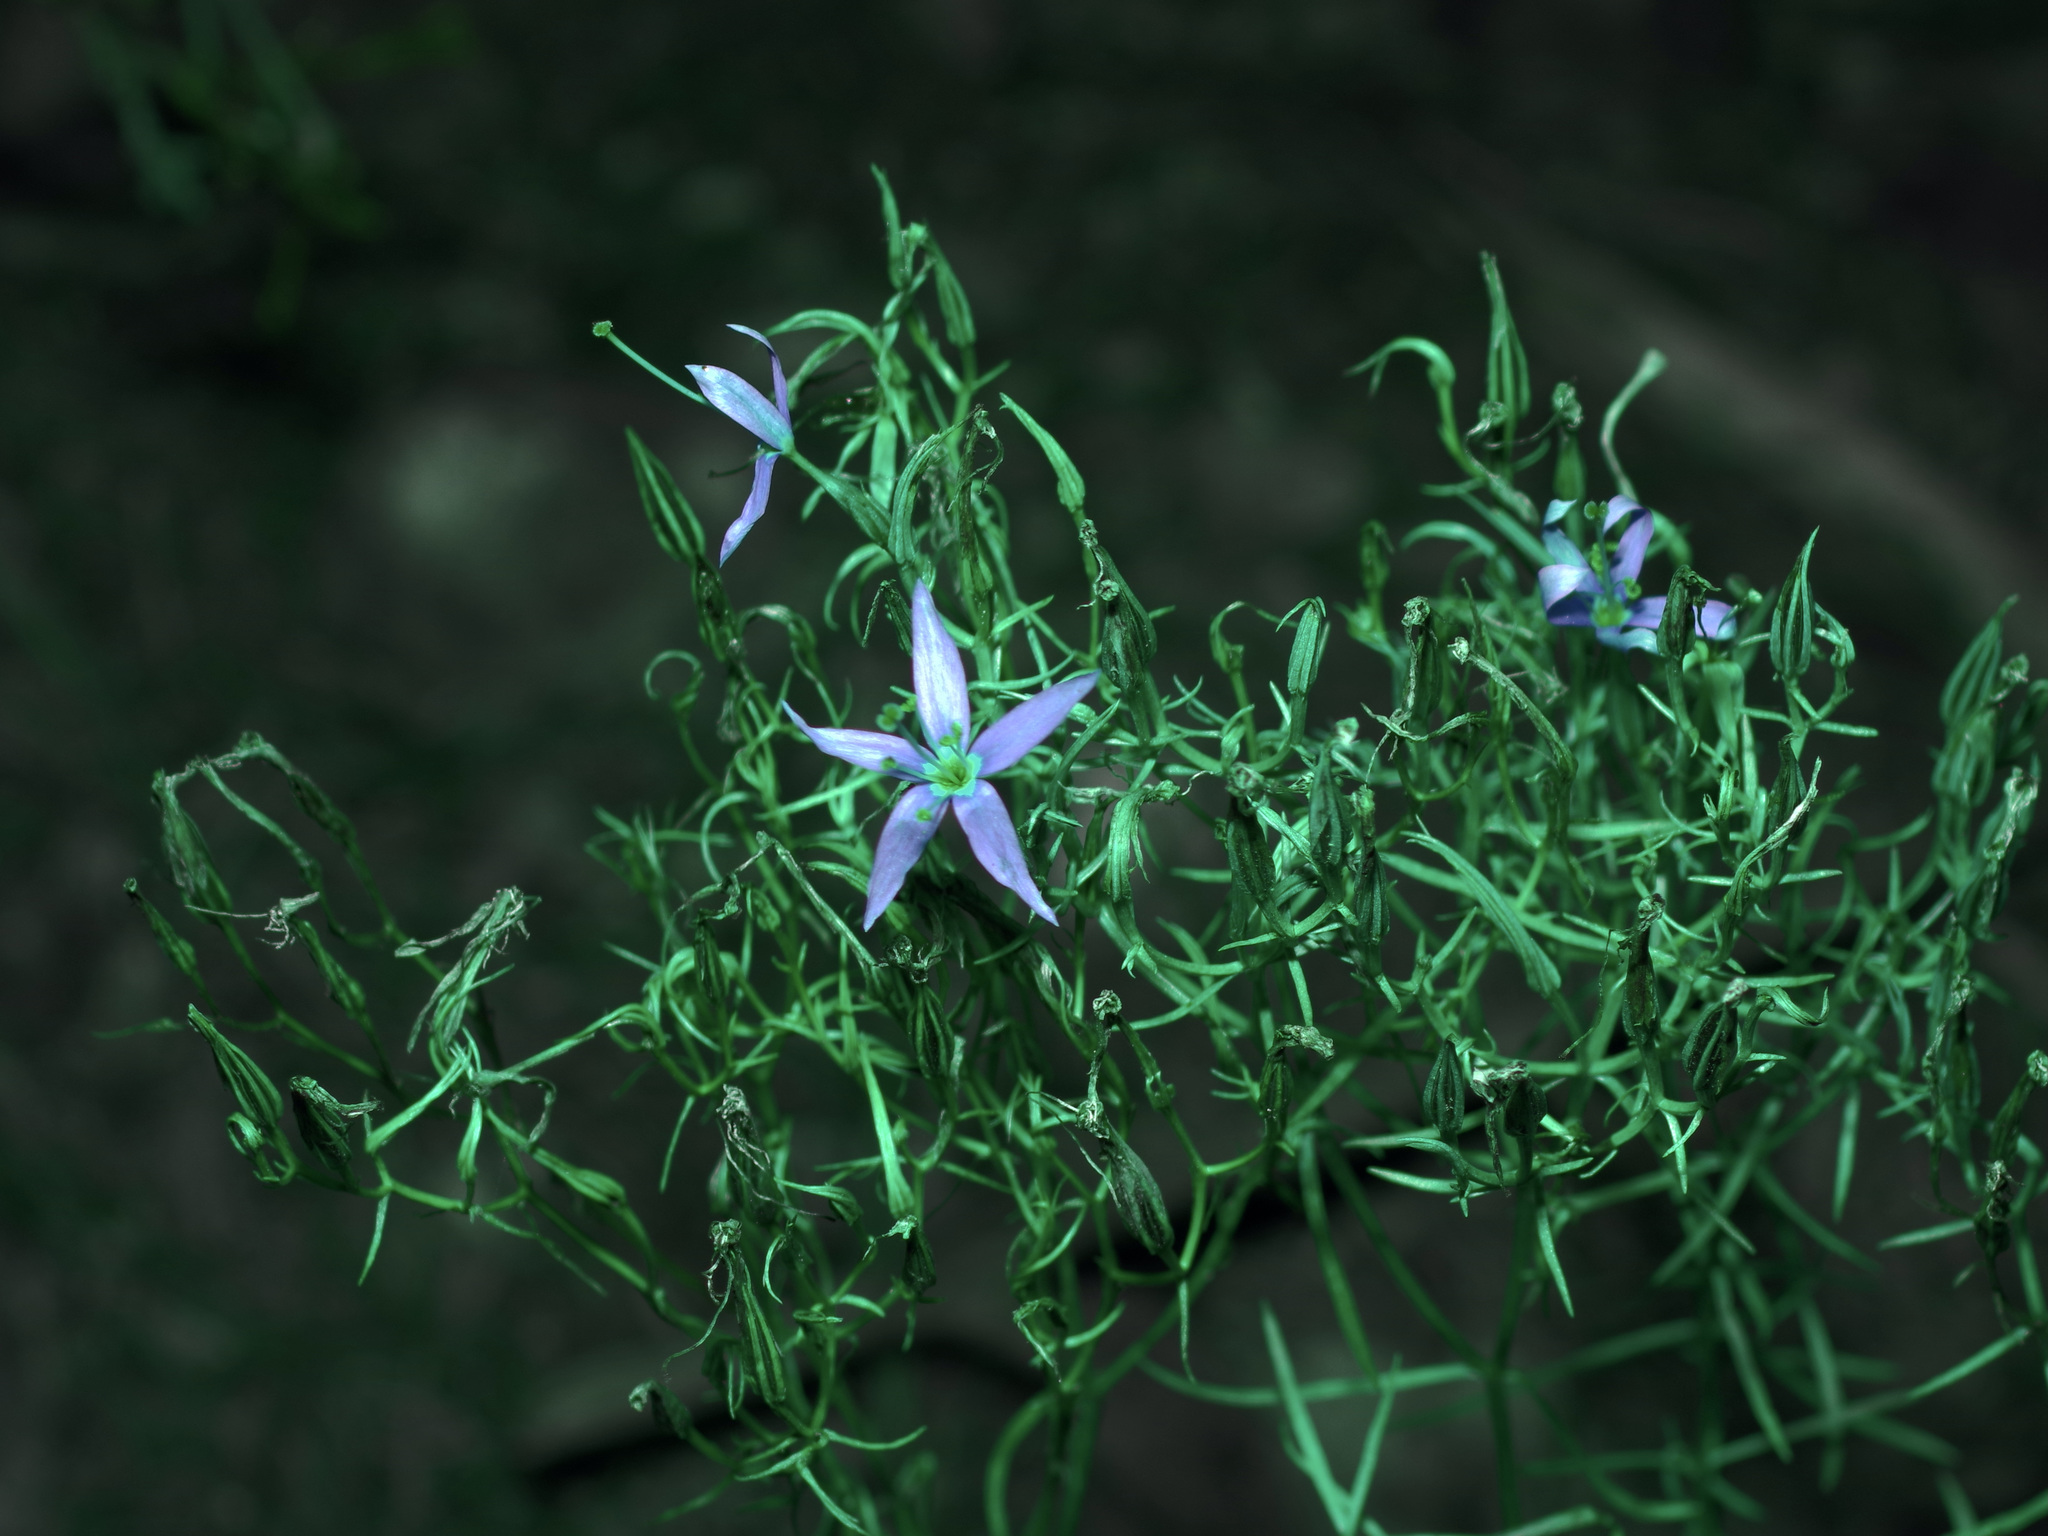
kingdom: Plantae
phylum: Tracheophyta
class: Magnoliopsida
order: Gentianales
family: Gentianaceae
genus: Zeltnera
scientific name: Zeltnera beyrichii
